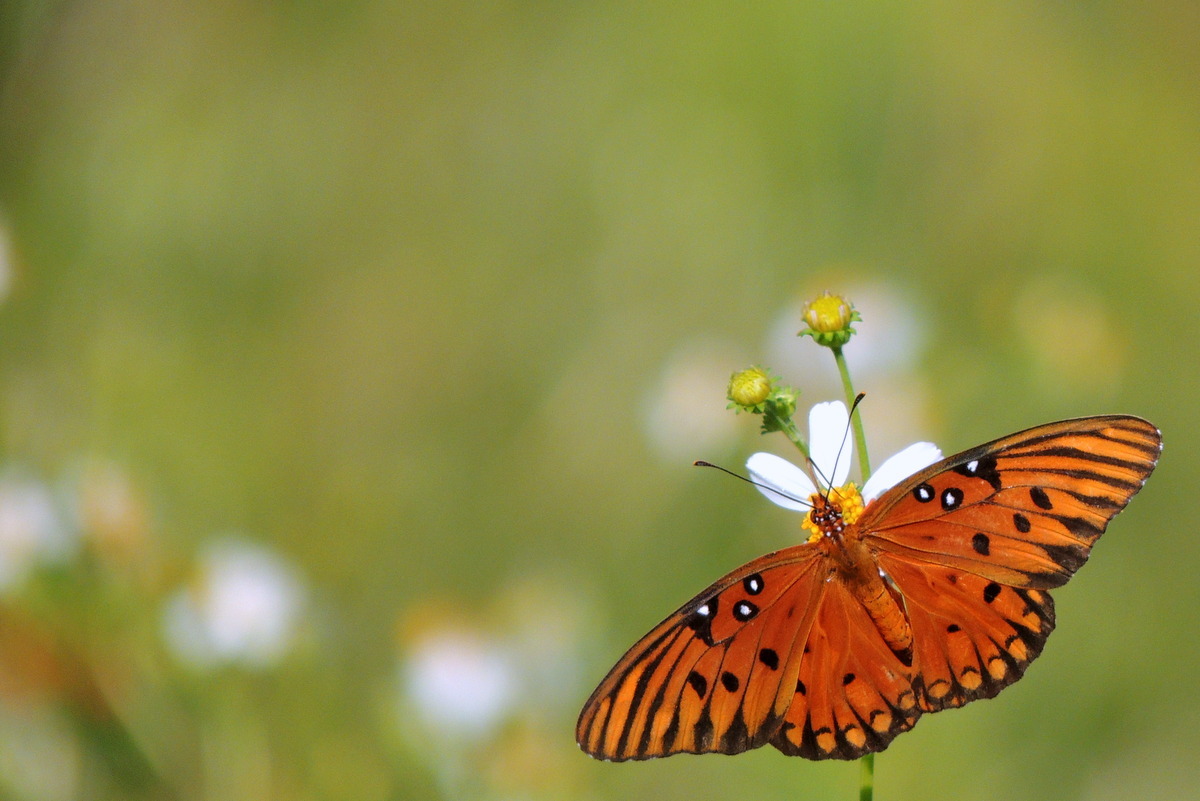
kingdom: Animalia
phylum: Arthropoda
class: Insecta
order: Lepidoptera
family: Nymphalidae
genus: Dione
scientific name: Dione vanillae
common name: Gulf fritillary
